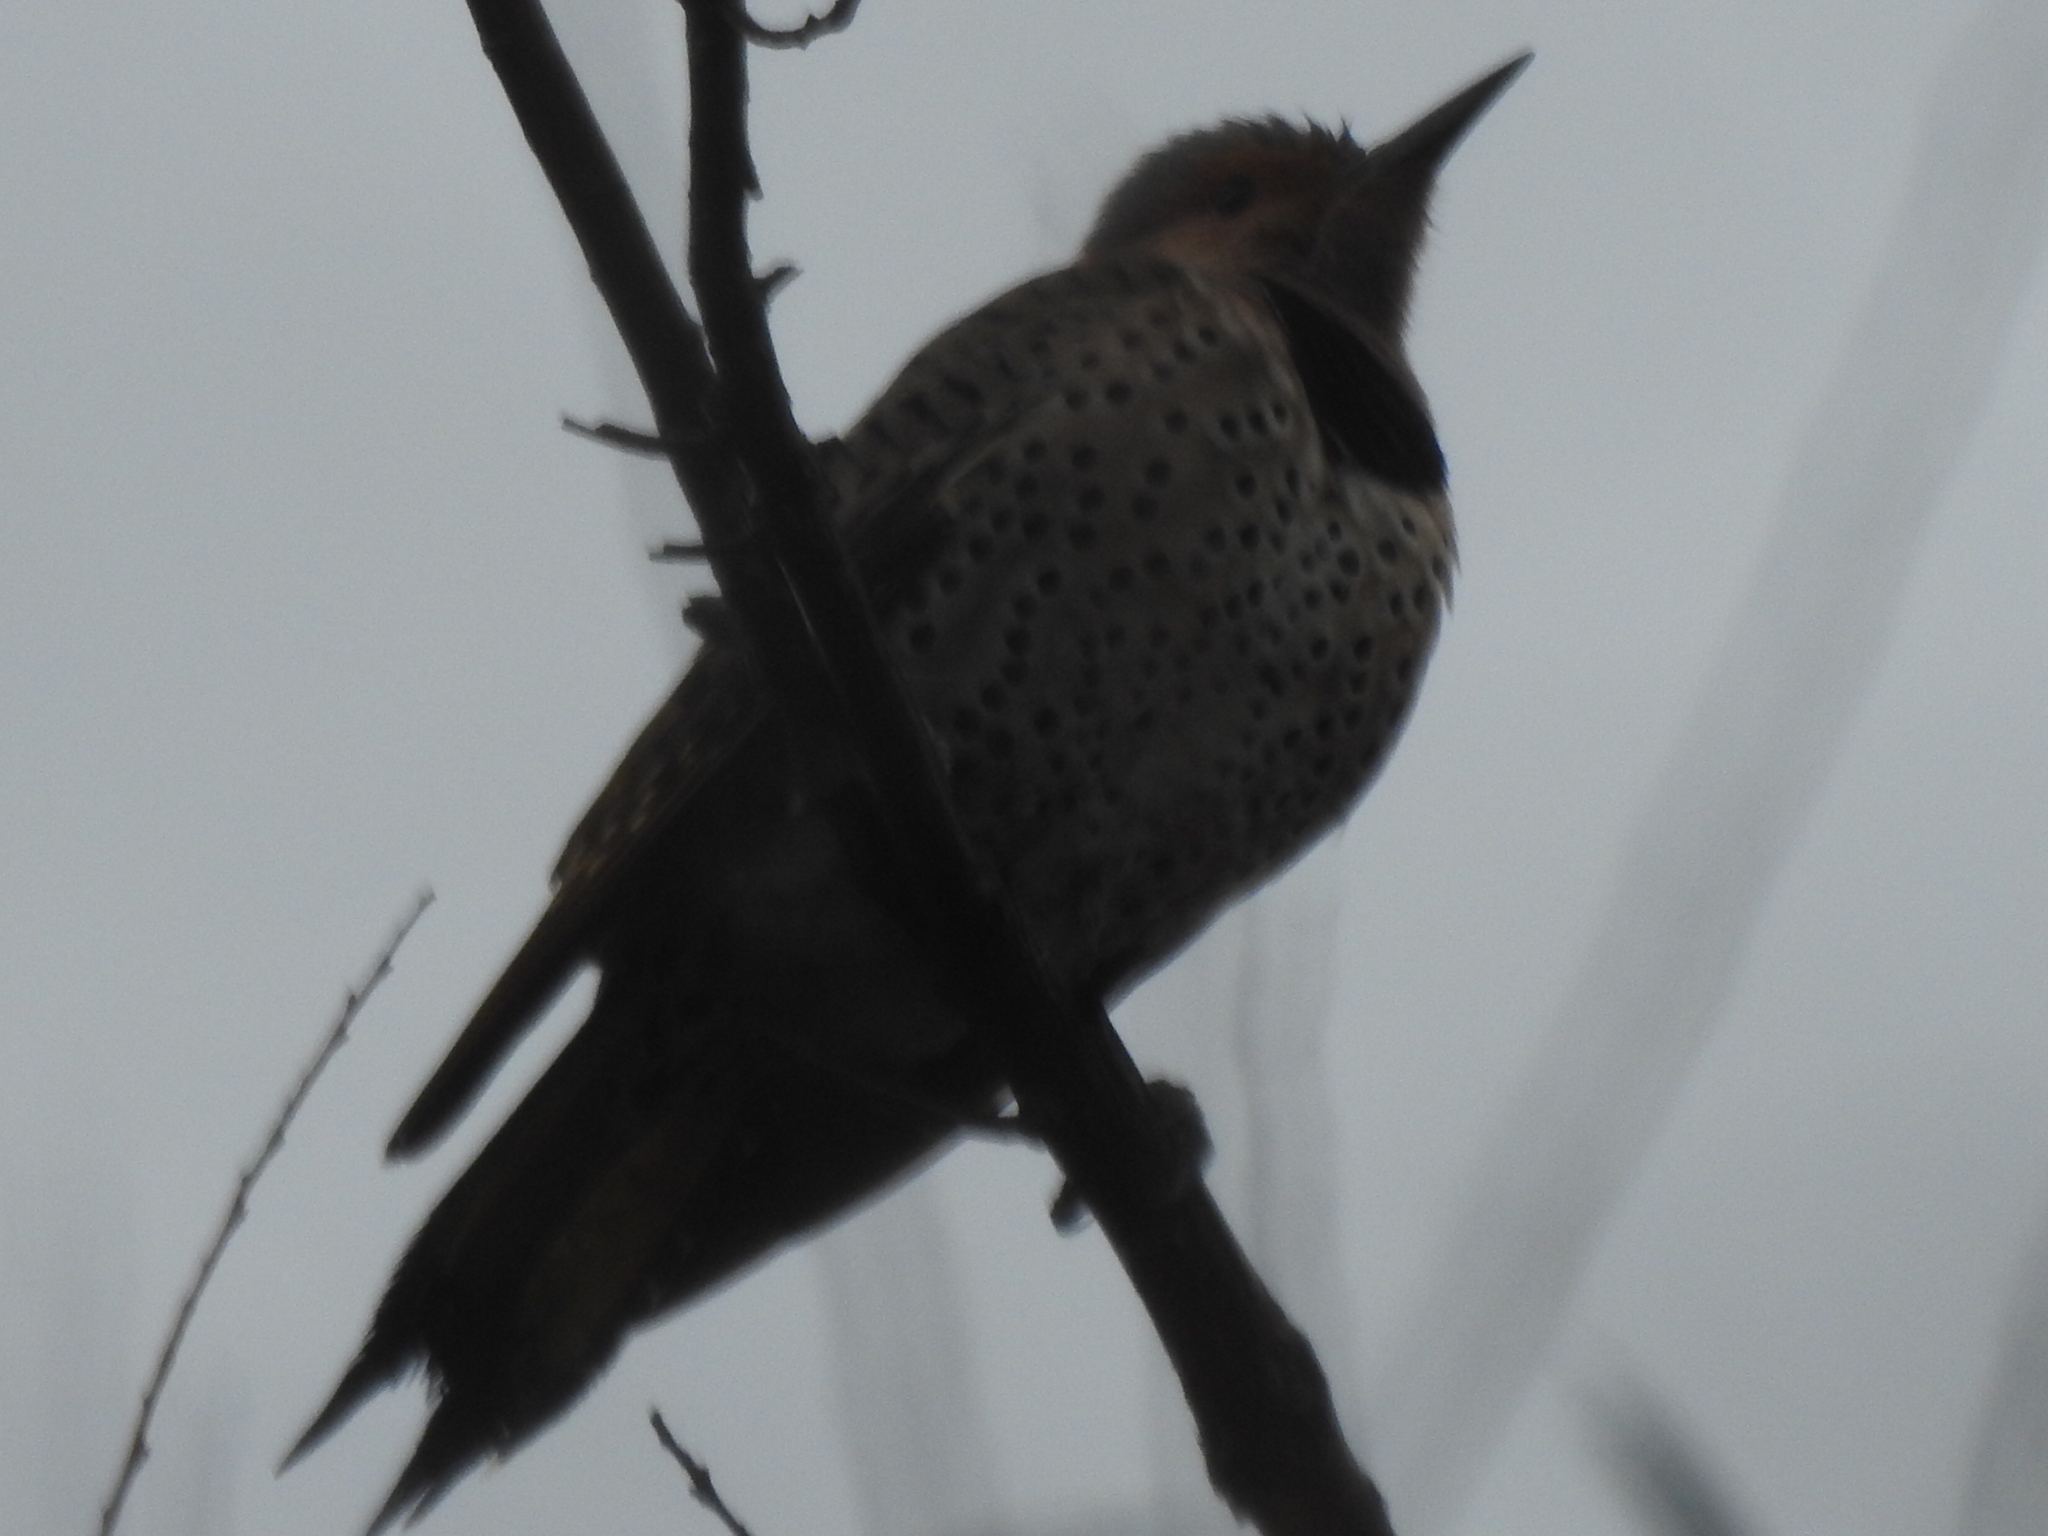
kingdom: Animalia
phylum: Chordata
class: Aves
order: Piciformes
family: Picidae
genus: Colaptes
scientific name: Colaptes auratus
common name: Northern flicker
